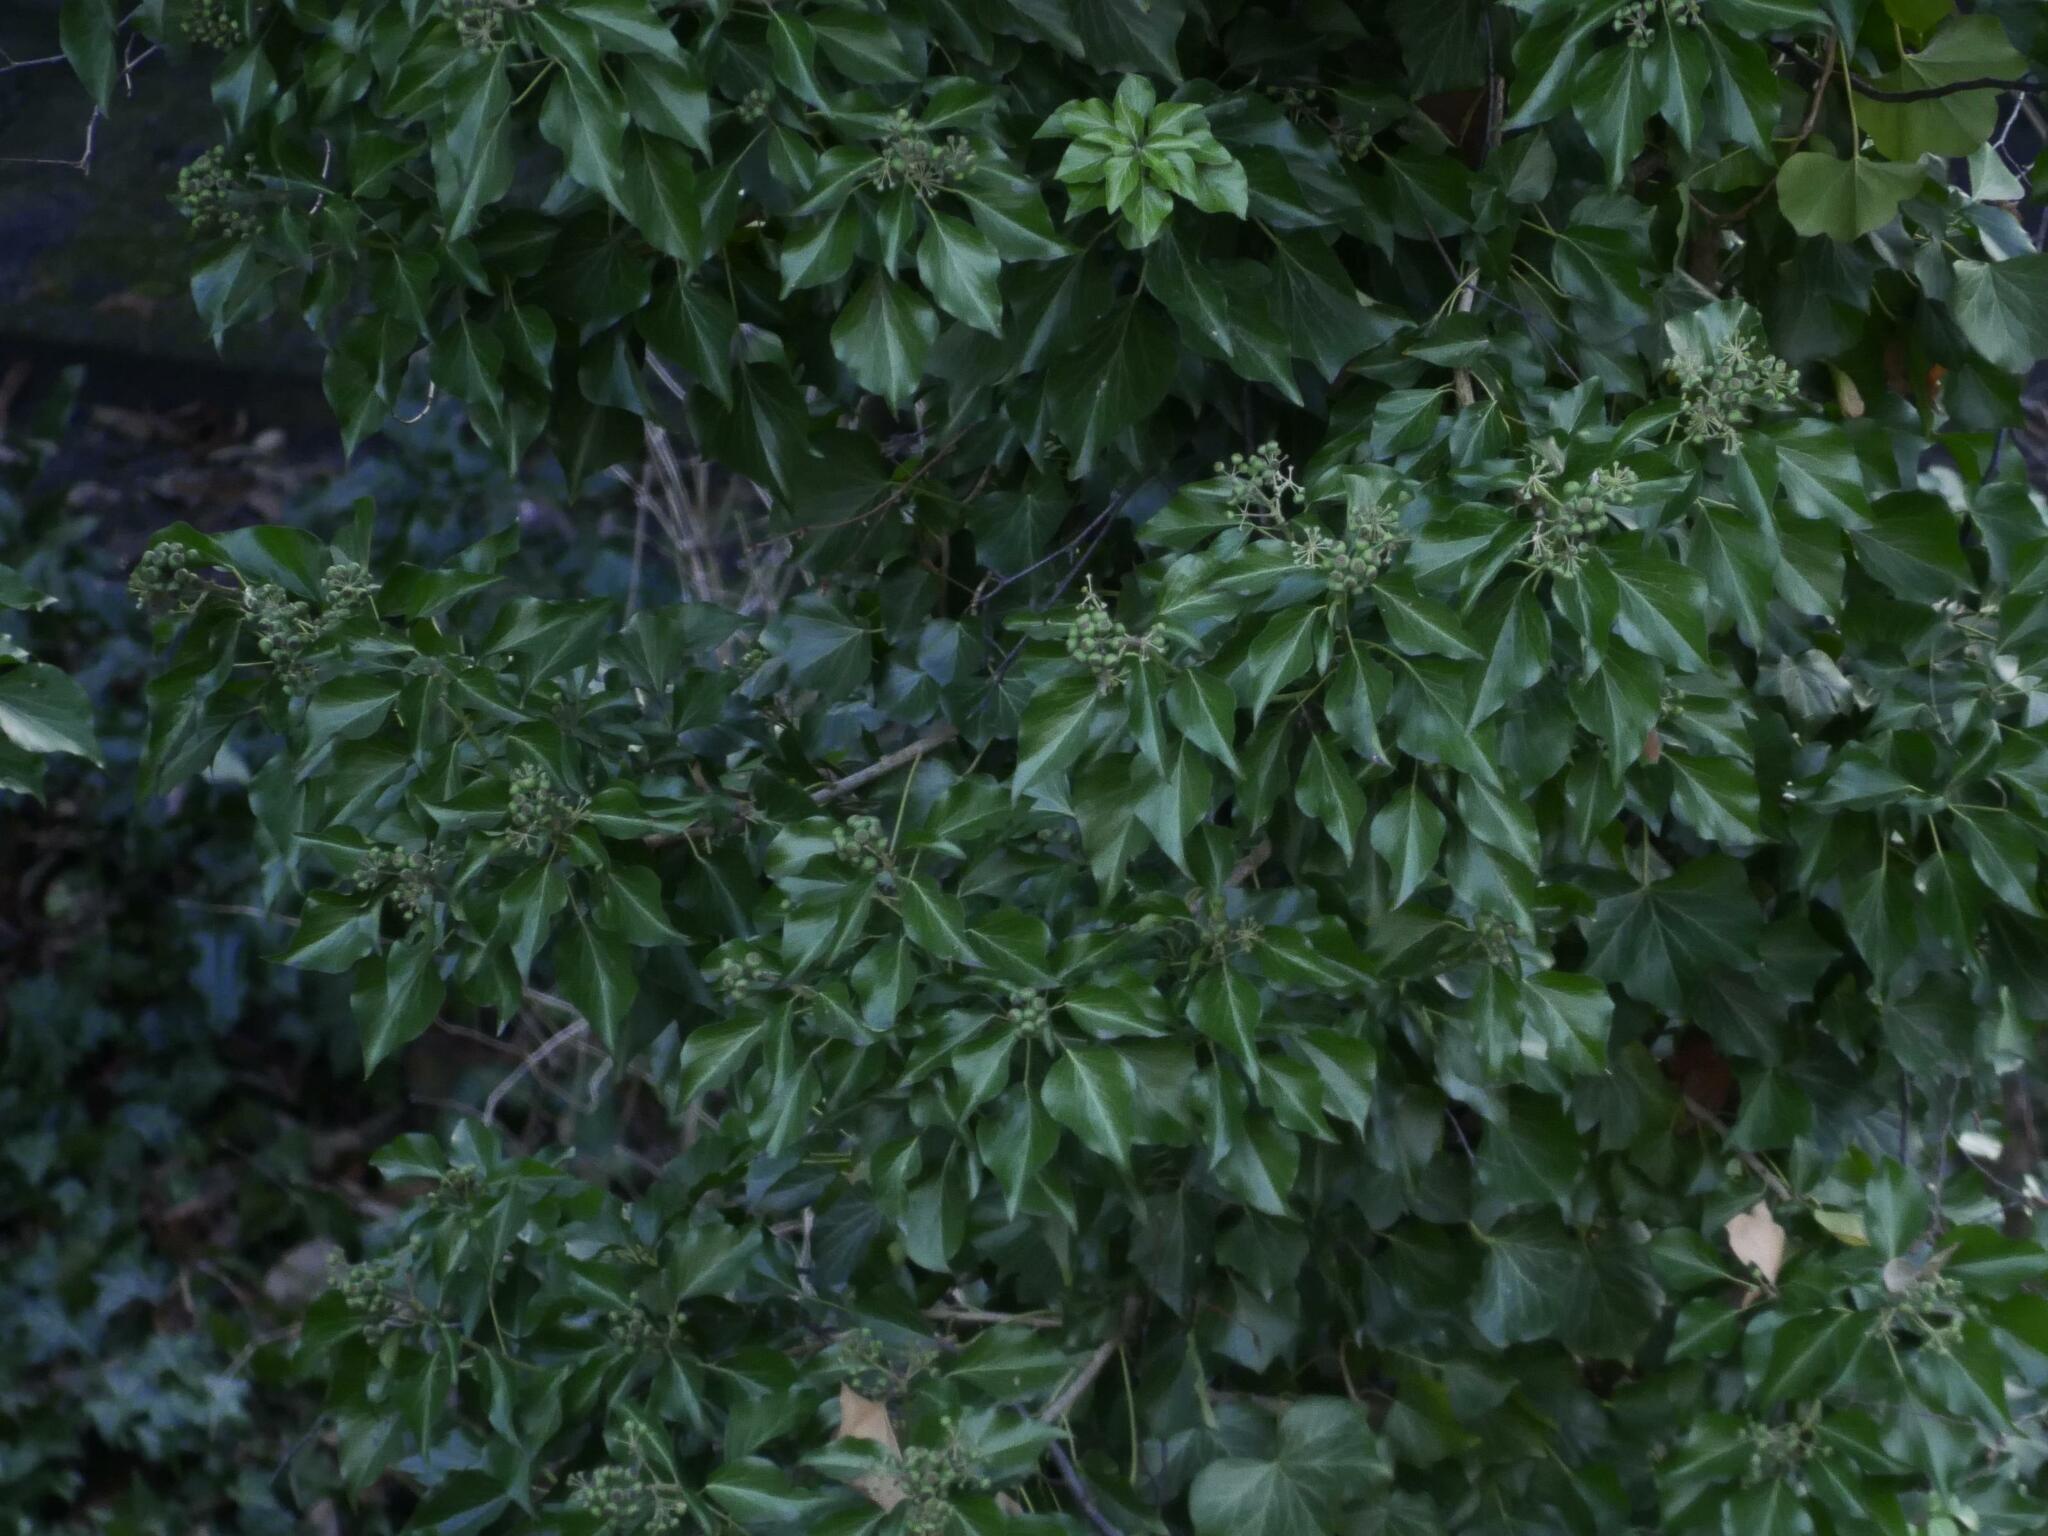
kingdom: Plantae
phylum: Tracheophyta
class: Magnoliopsida
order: Apiales
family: Araliaceae
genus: Hedera
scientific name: Hedera helix
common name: Ivy
